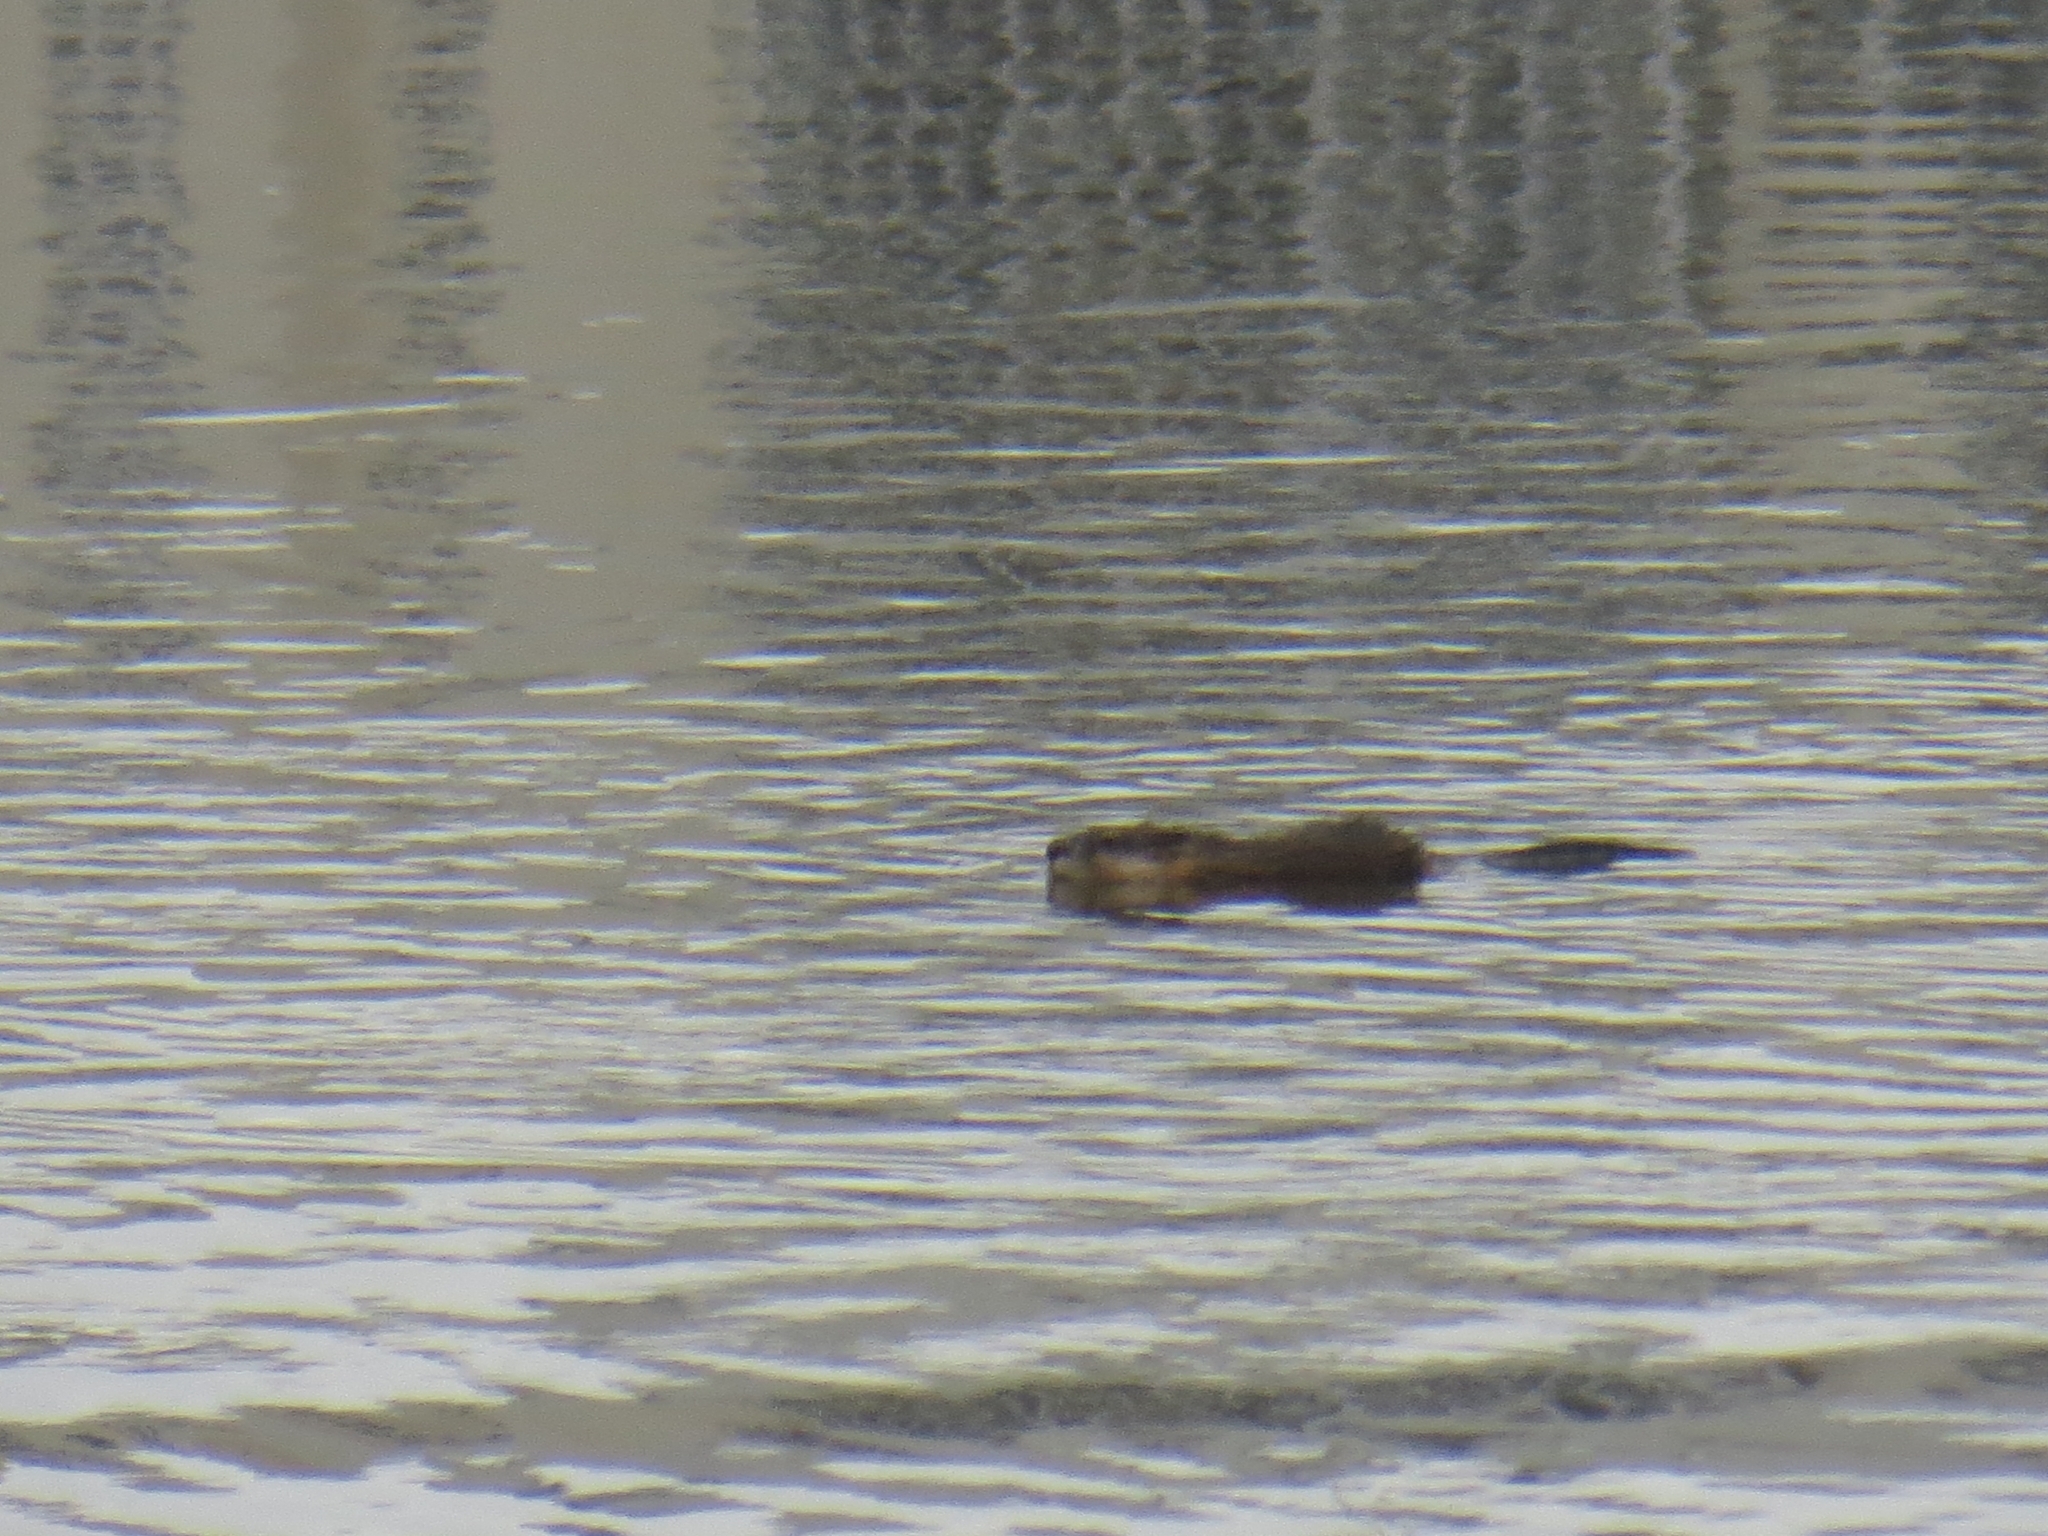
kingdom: Animalia
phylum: Chordata
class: Mammalia
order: Rodentia
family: Cricetidae
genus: Ondatra
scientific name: Ondatra zibethicus
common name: Muskrat
